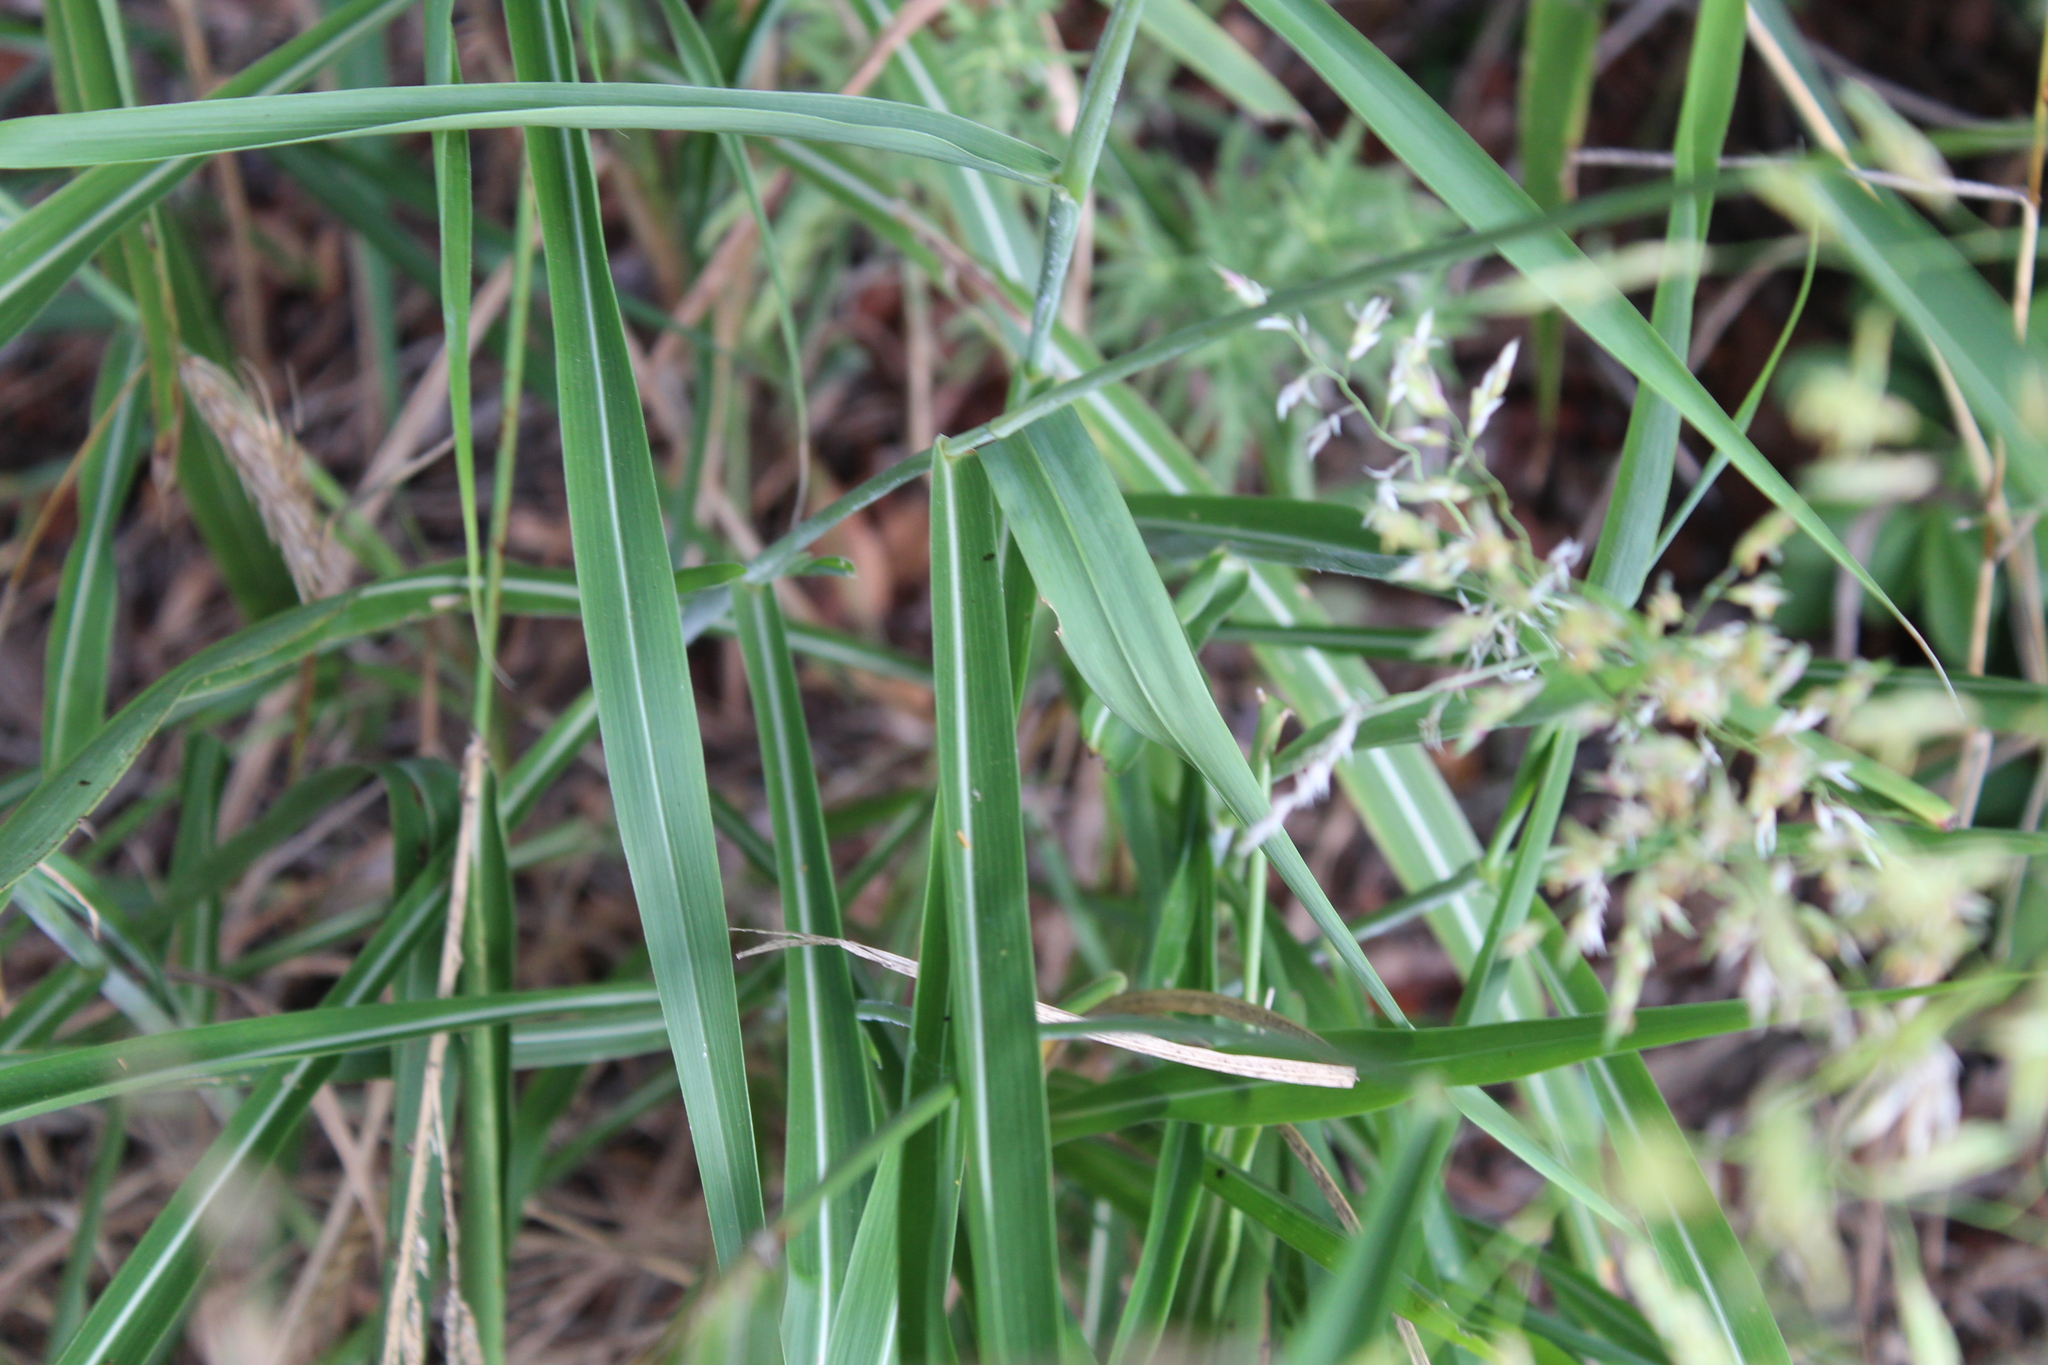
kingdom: Plantae
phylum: Tracheophyta
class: Liliopsida
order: Poales
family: Poaceae
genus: Sorghum
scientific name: Sorghum halepense
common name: Johnson-grass
